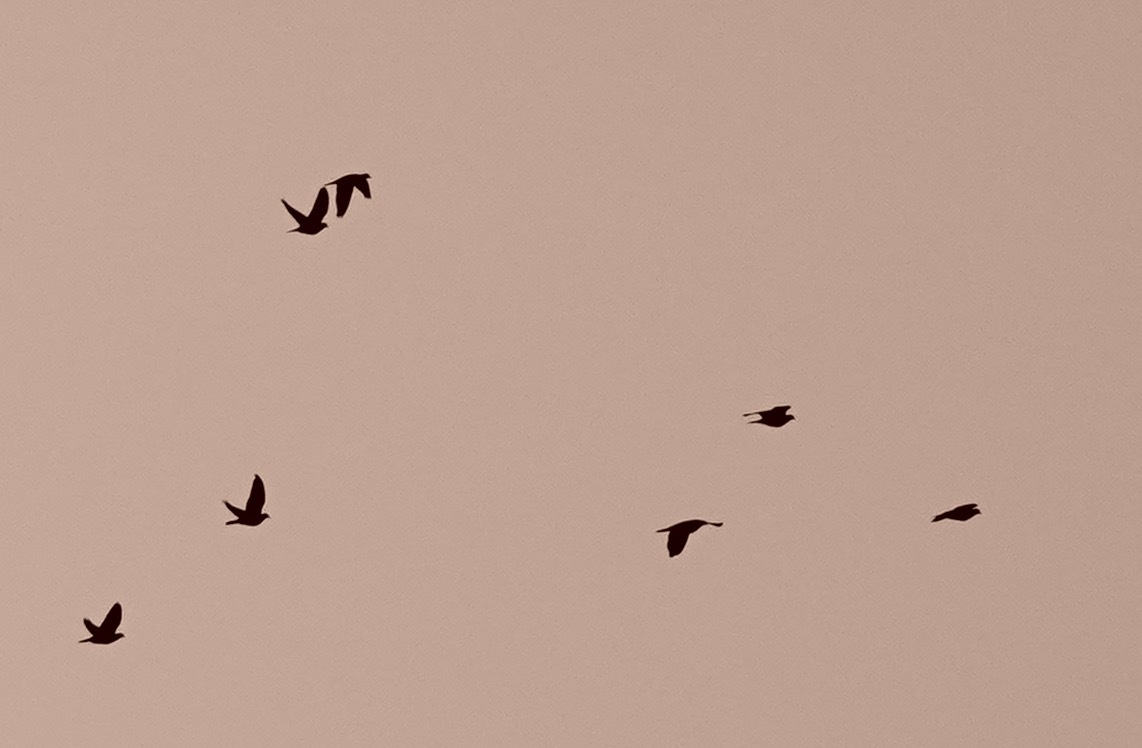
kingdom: Animalia
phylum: Chordata
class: Aves
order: Columbiformes
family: Columbidae
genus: Patagioenas
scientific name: Patagioenas fasciata
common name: Band-tailed pigeon
